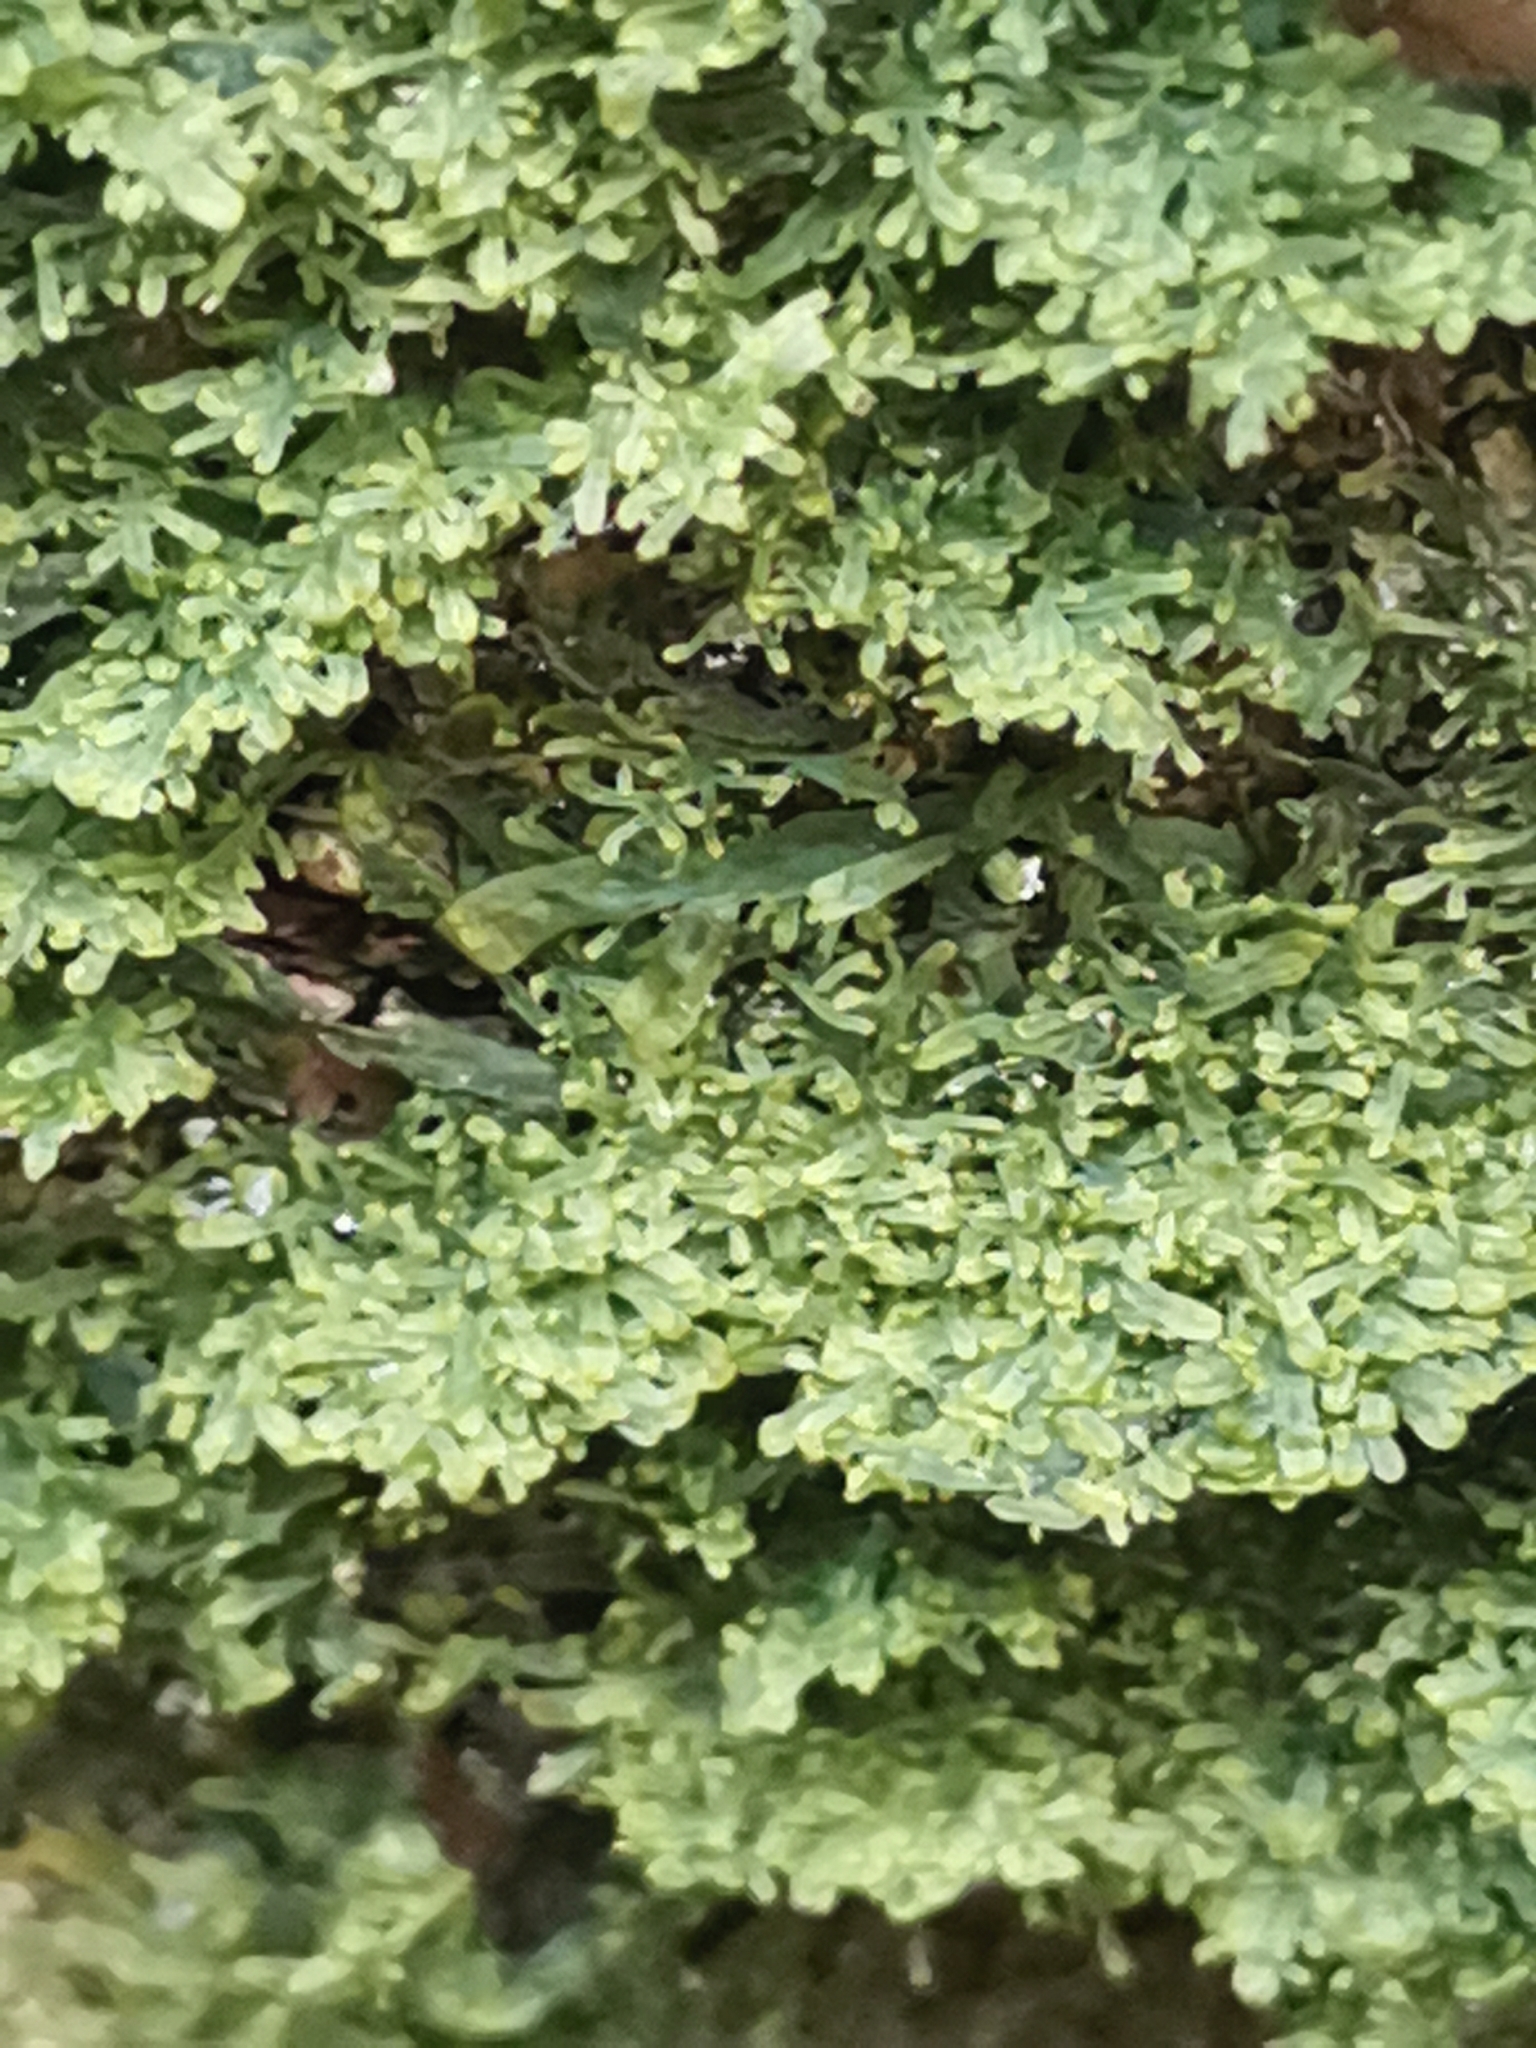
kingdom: Plantae
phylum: Marchantiophyta
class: Jungermanniopsida
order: Metzgeriales
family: Metzgeriaceae
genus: Metzgeria
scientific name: Metzgeria furcata
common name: Forked veilwort
